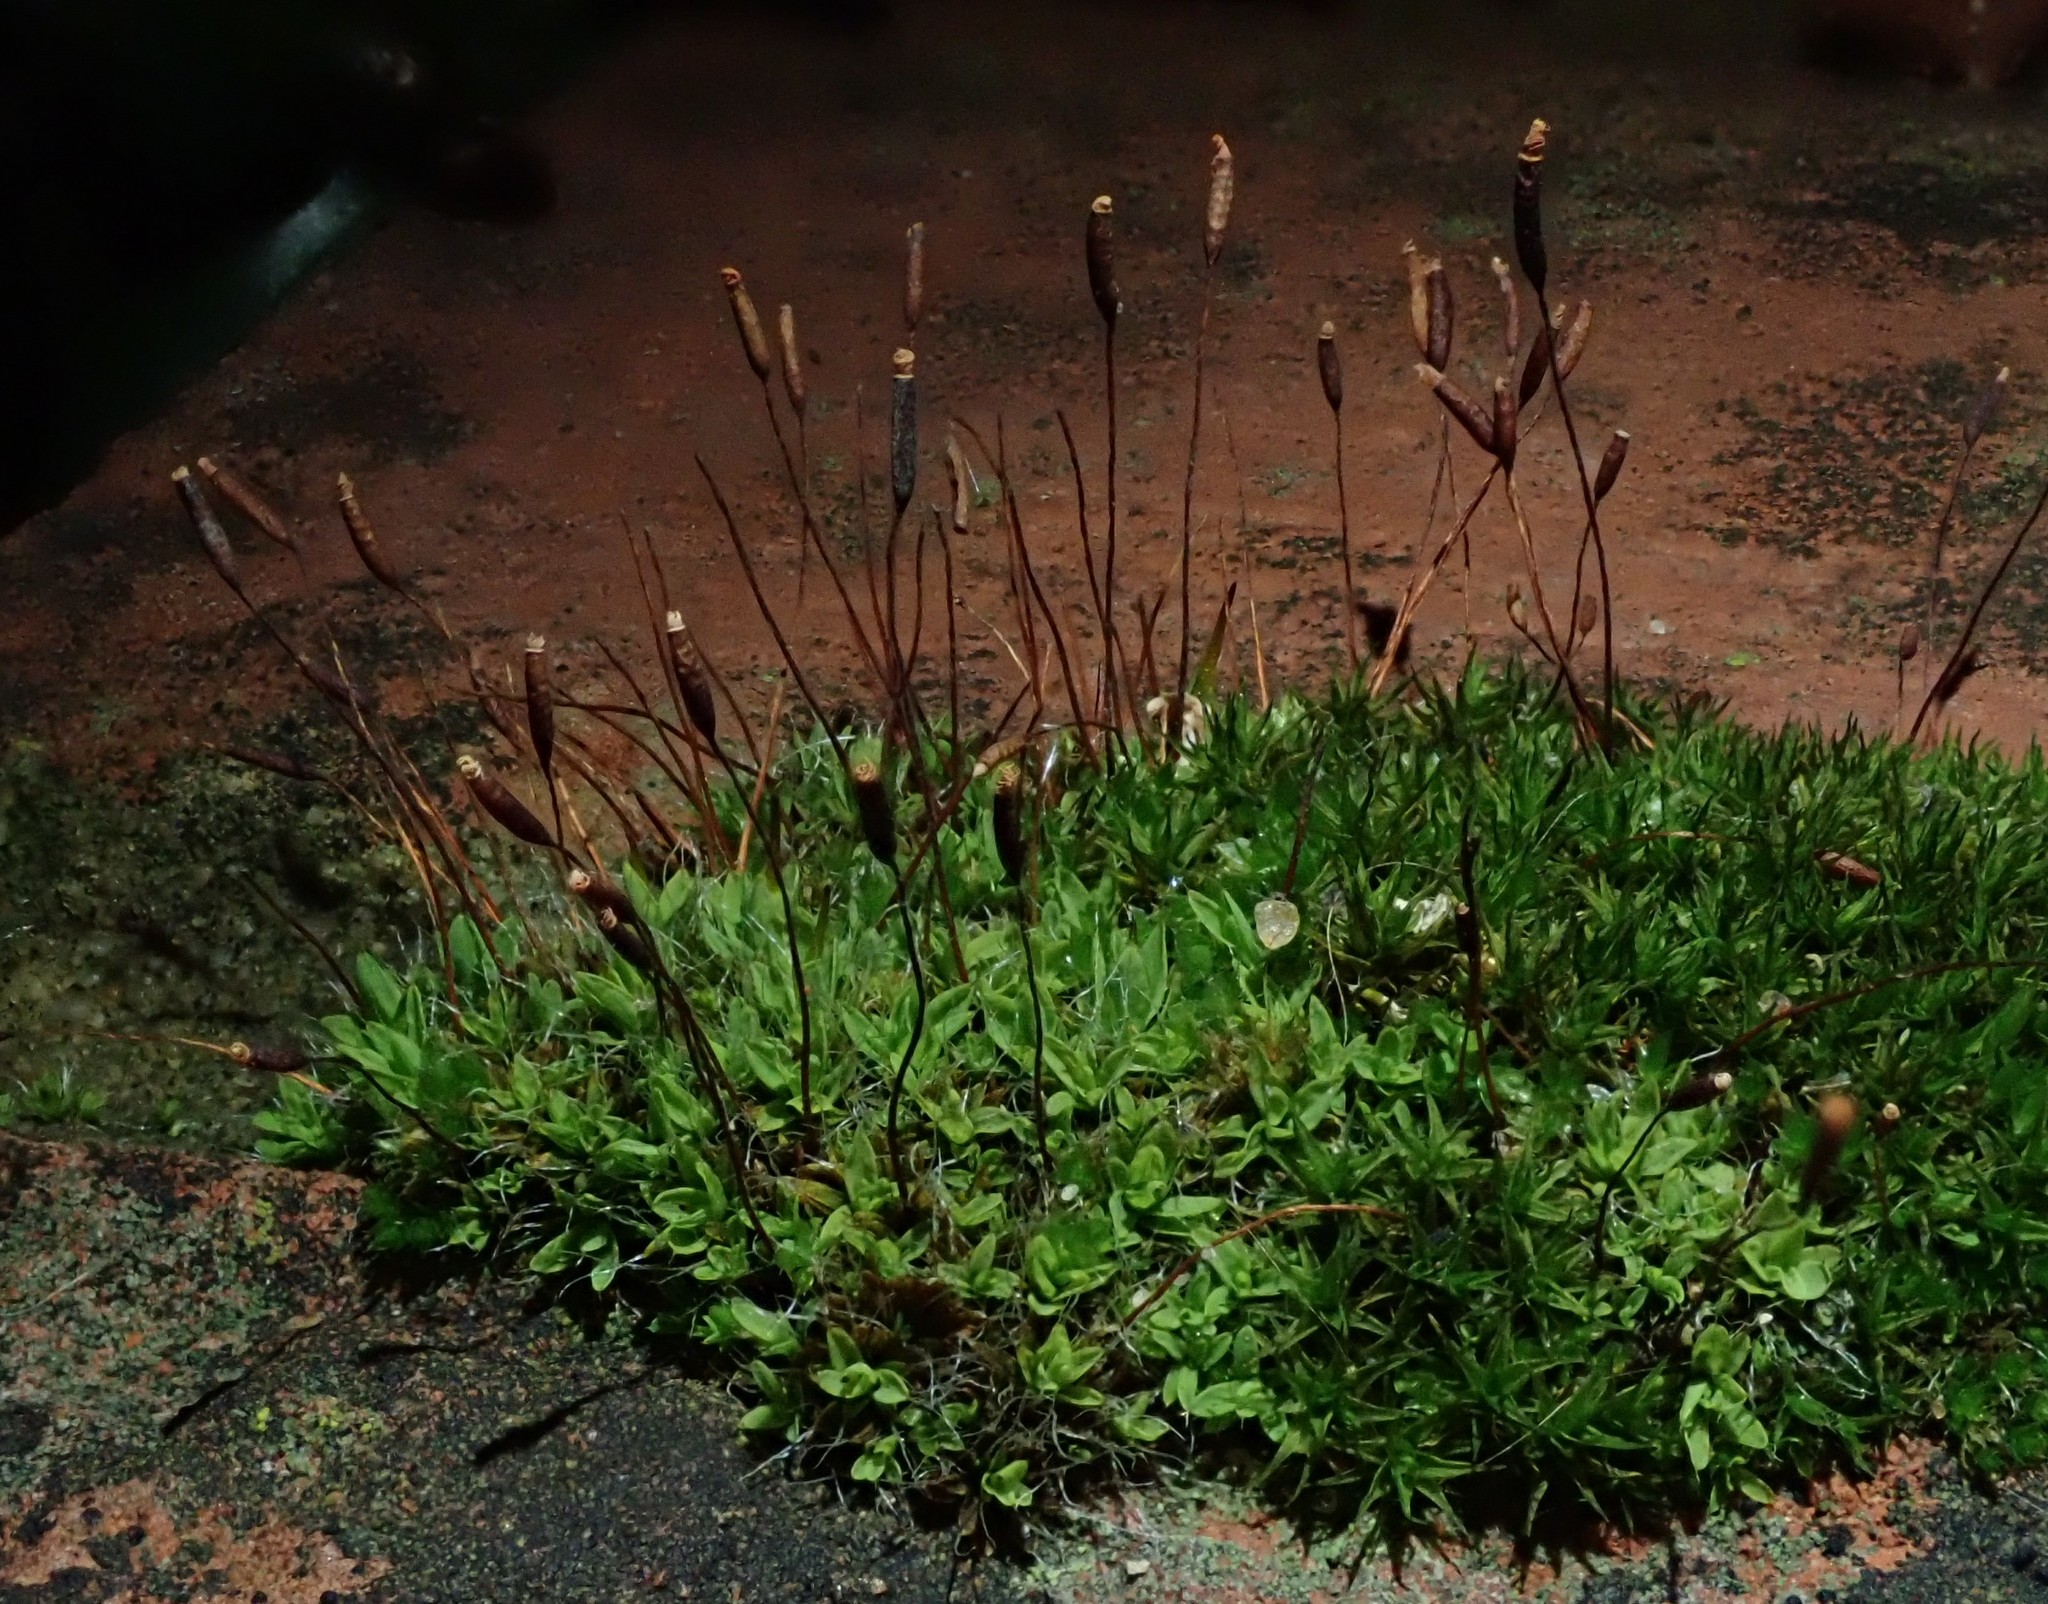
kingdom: Plantae
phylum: Bryophyta
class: Bryopsida
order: Pottiales
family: Pottiaceae
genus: Tortula
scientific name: Tortula muralis
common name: Wall screw-moss
